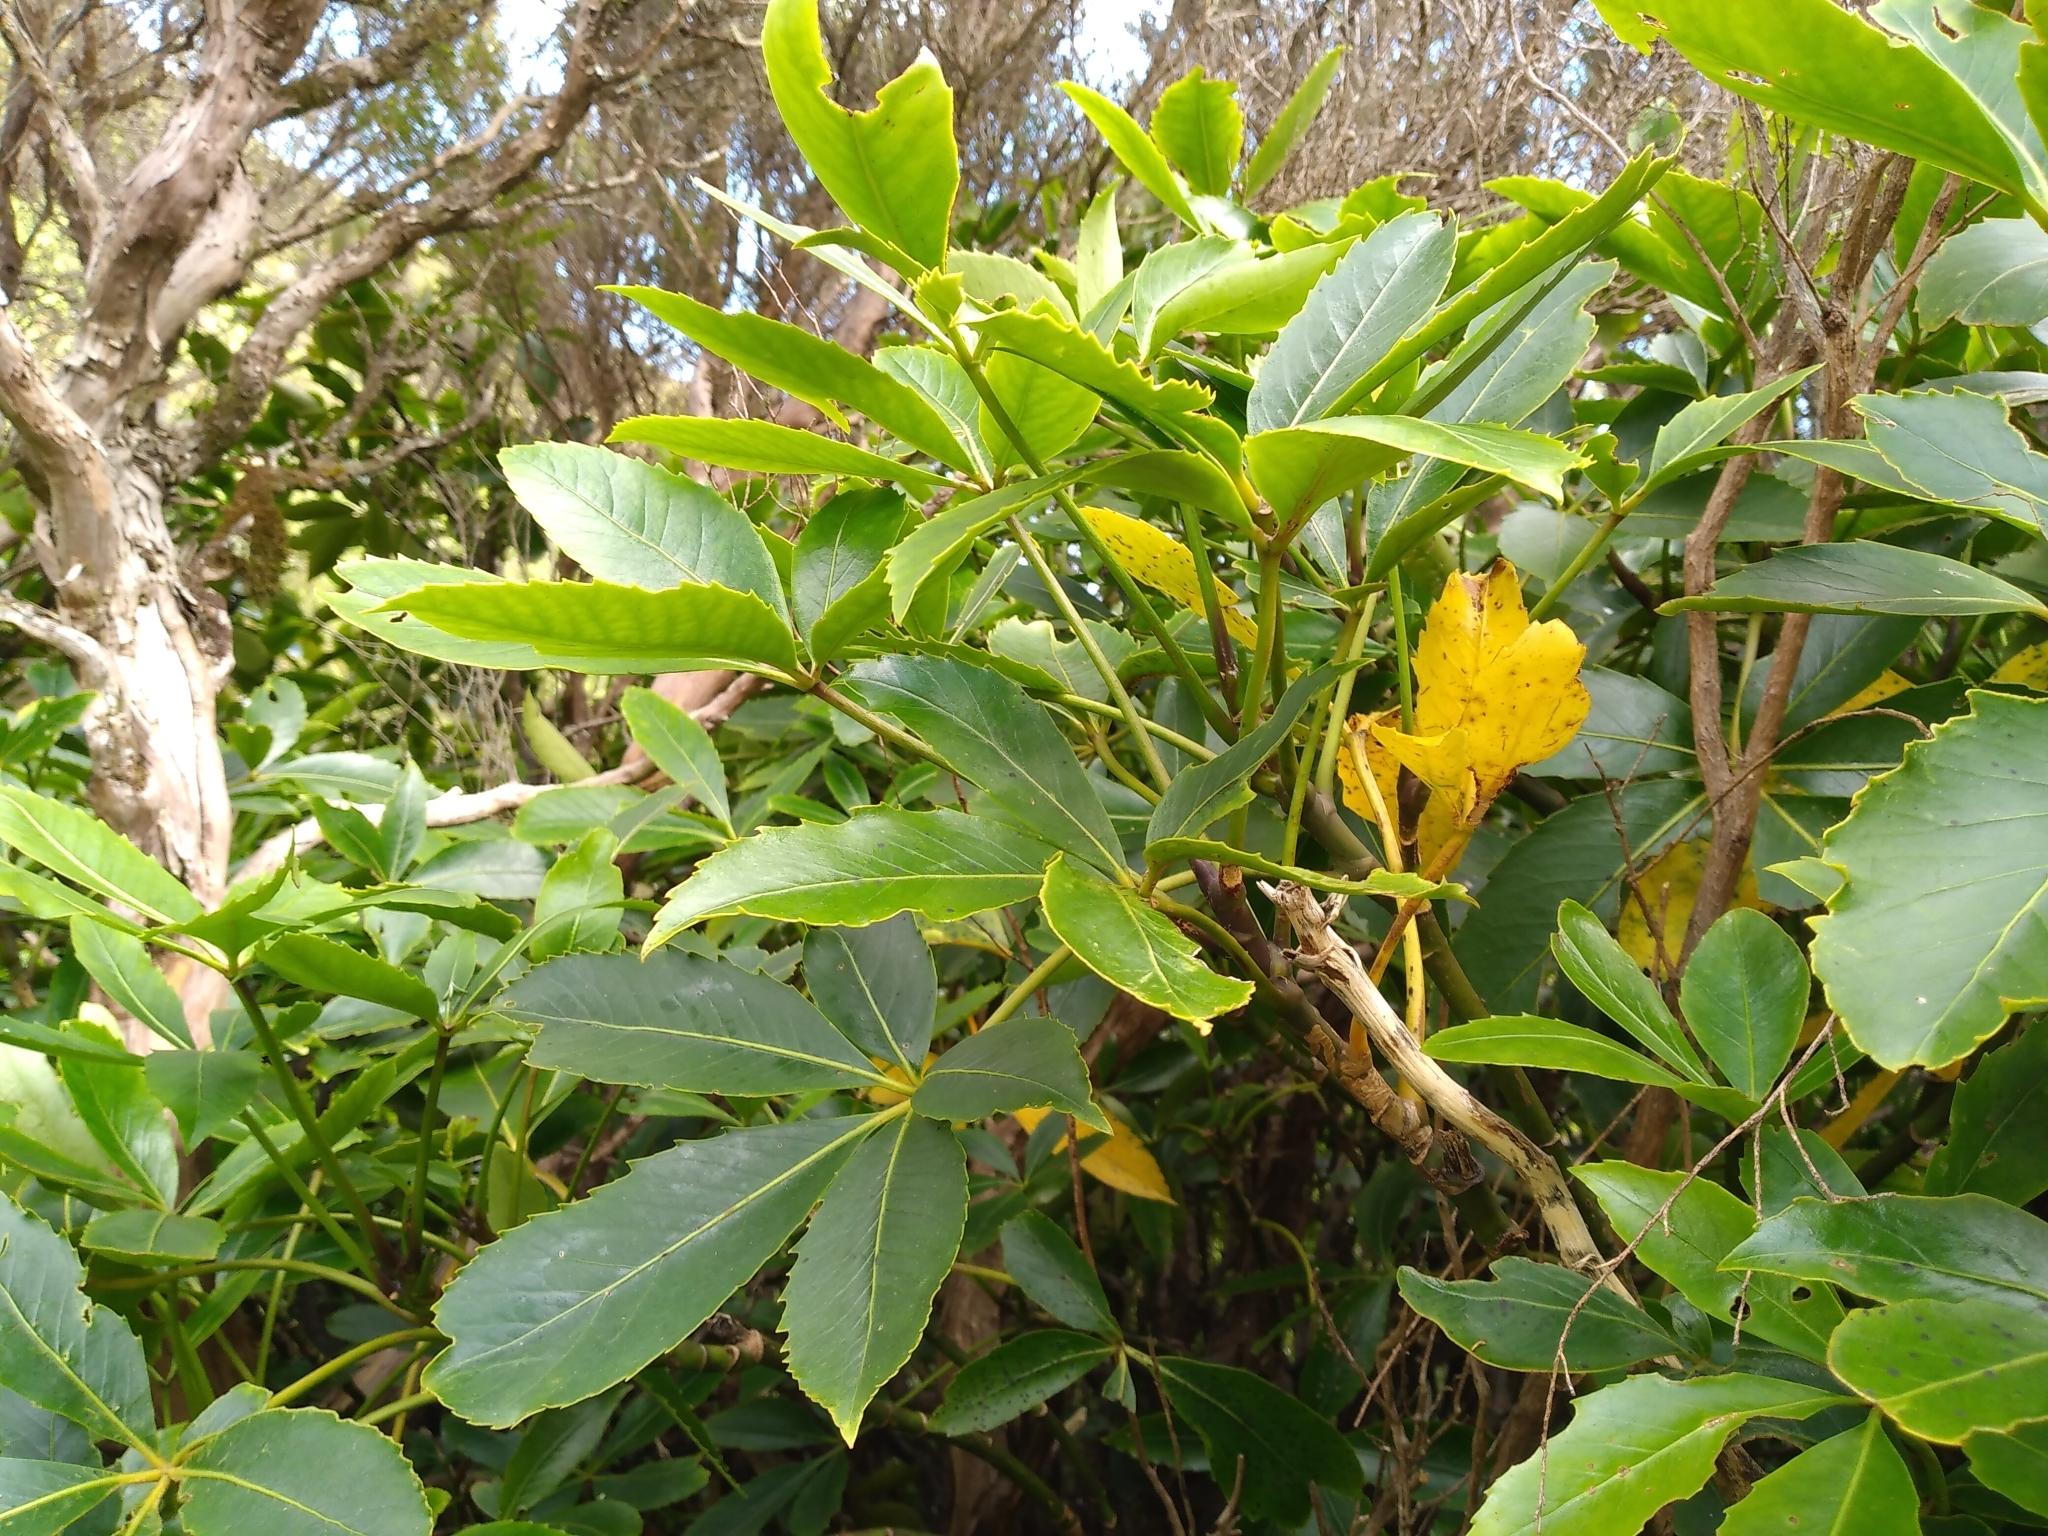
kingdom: Plantae
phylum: Tracheophyta
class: Magnoliopsida
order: Apiales
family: Araliaceae
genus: Neopanax
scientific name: Neopanax colensoi
